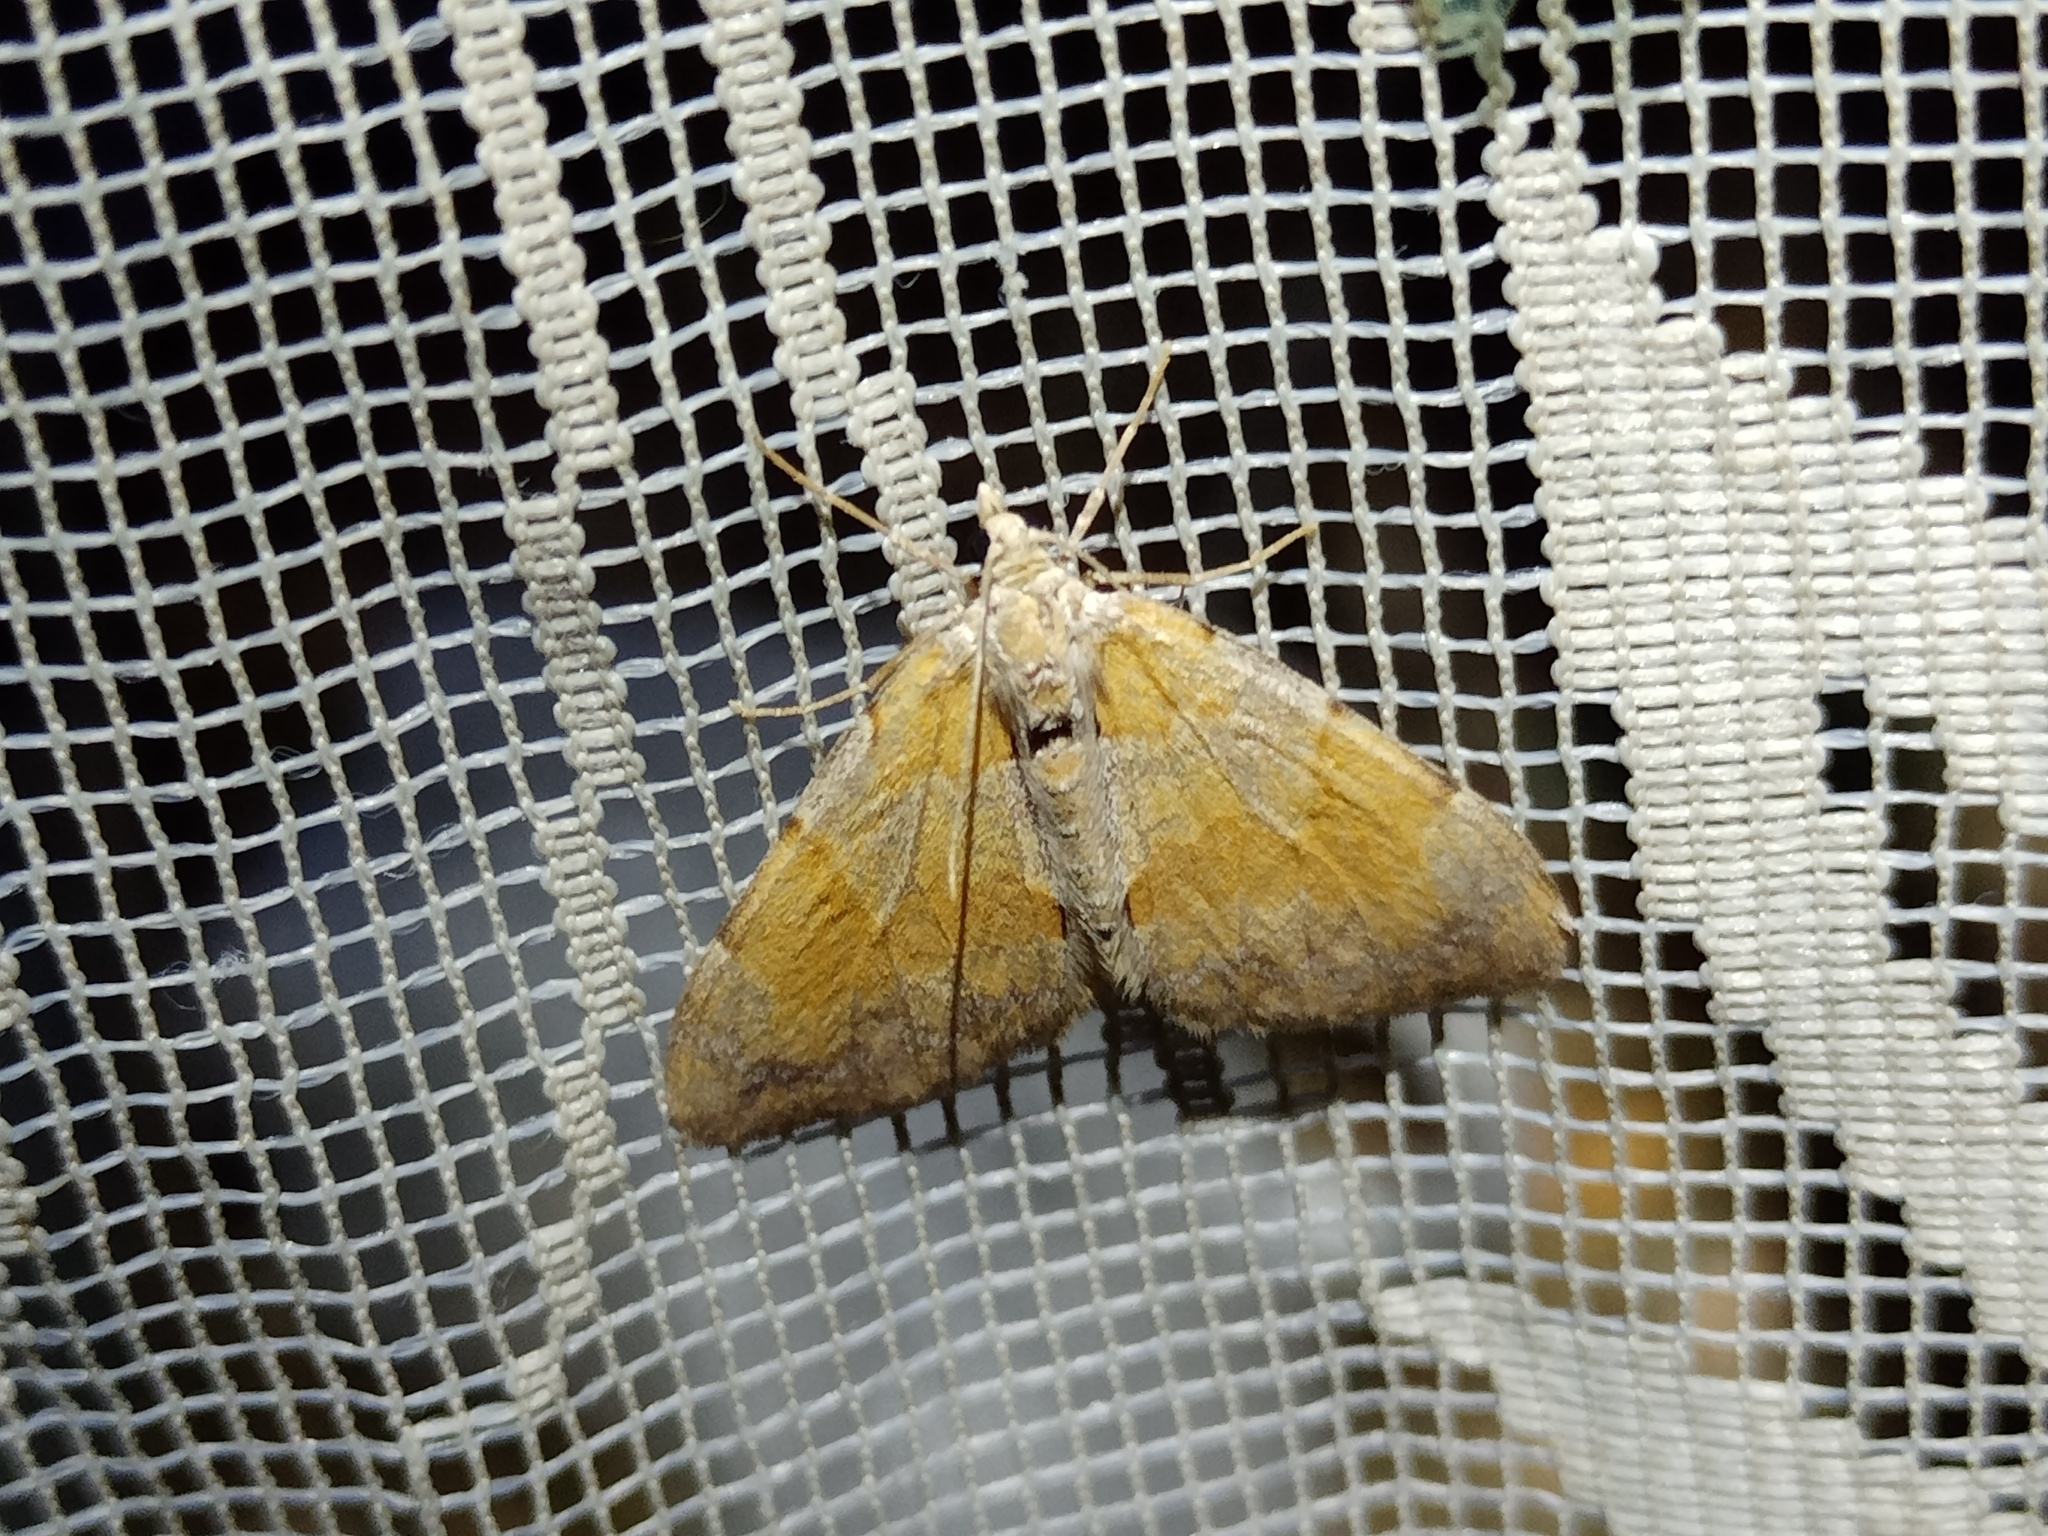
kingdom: Animalia
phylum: Arthropoda
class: Insecta
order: Lepidoptera
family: Geometridae
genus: Pennithera
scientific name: Pennithera firmata
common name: Pine carpet
